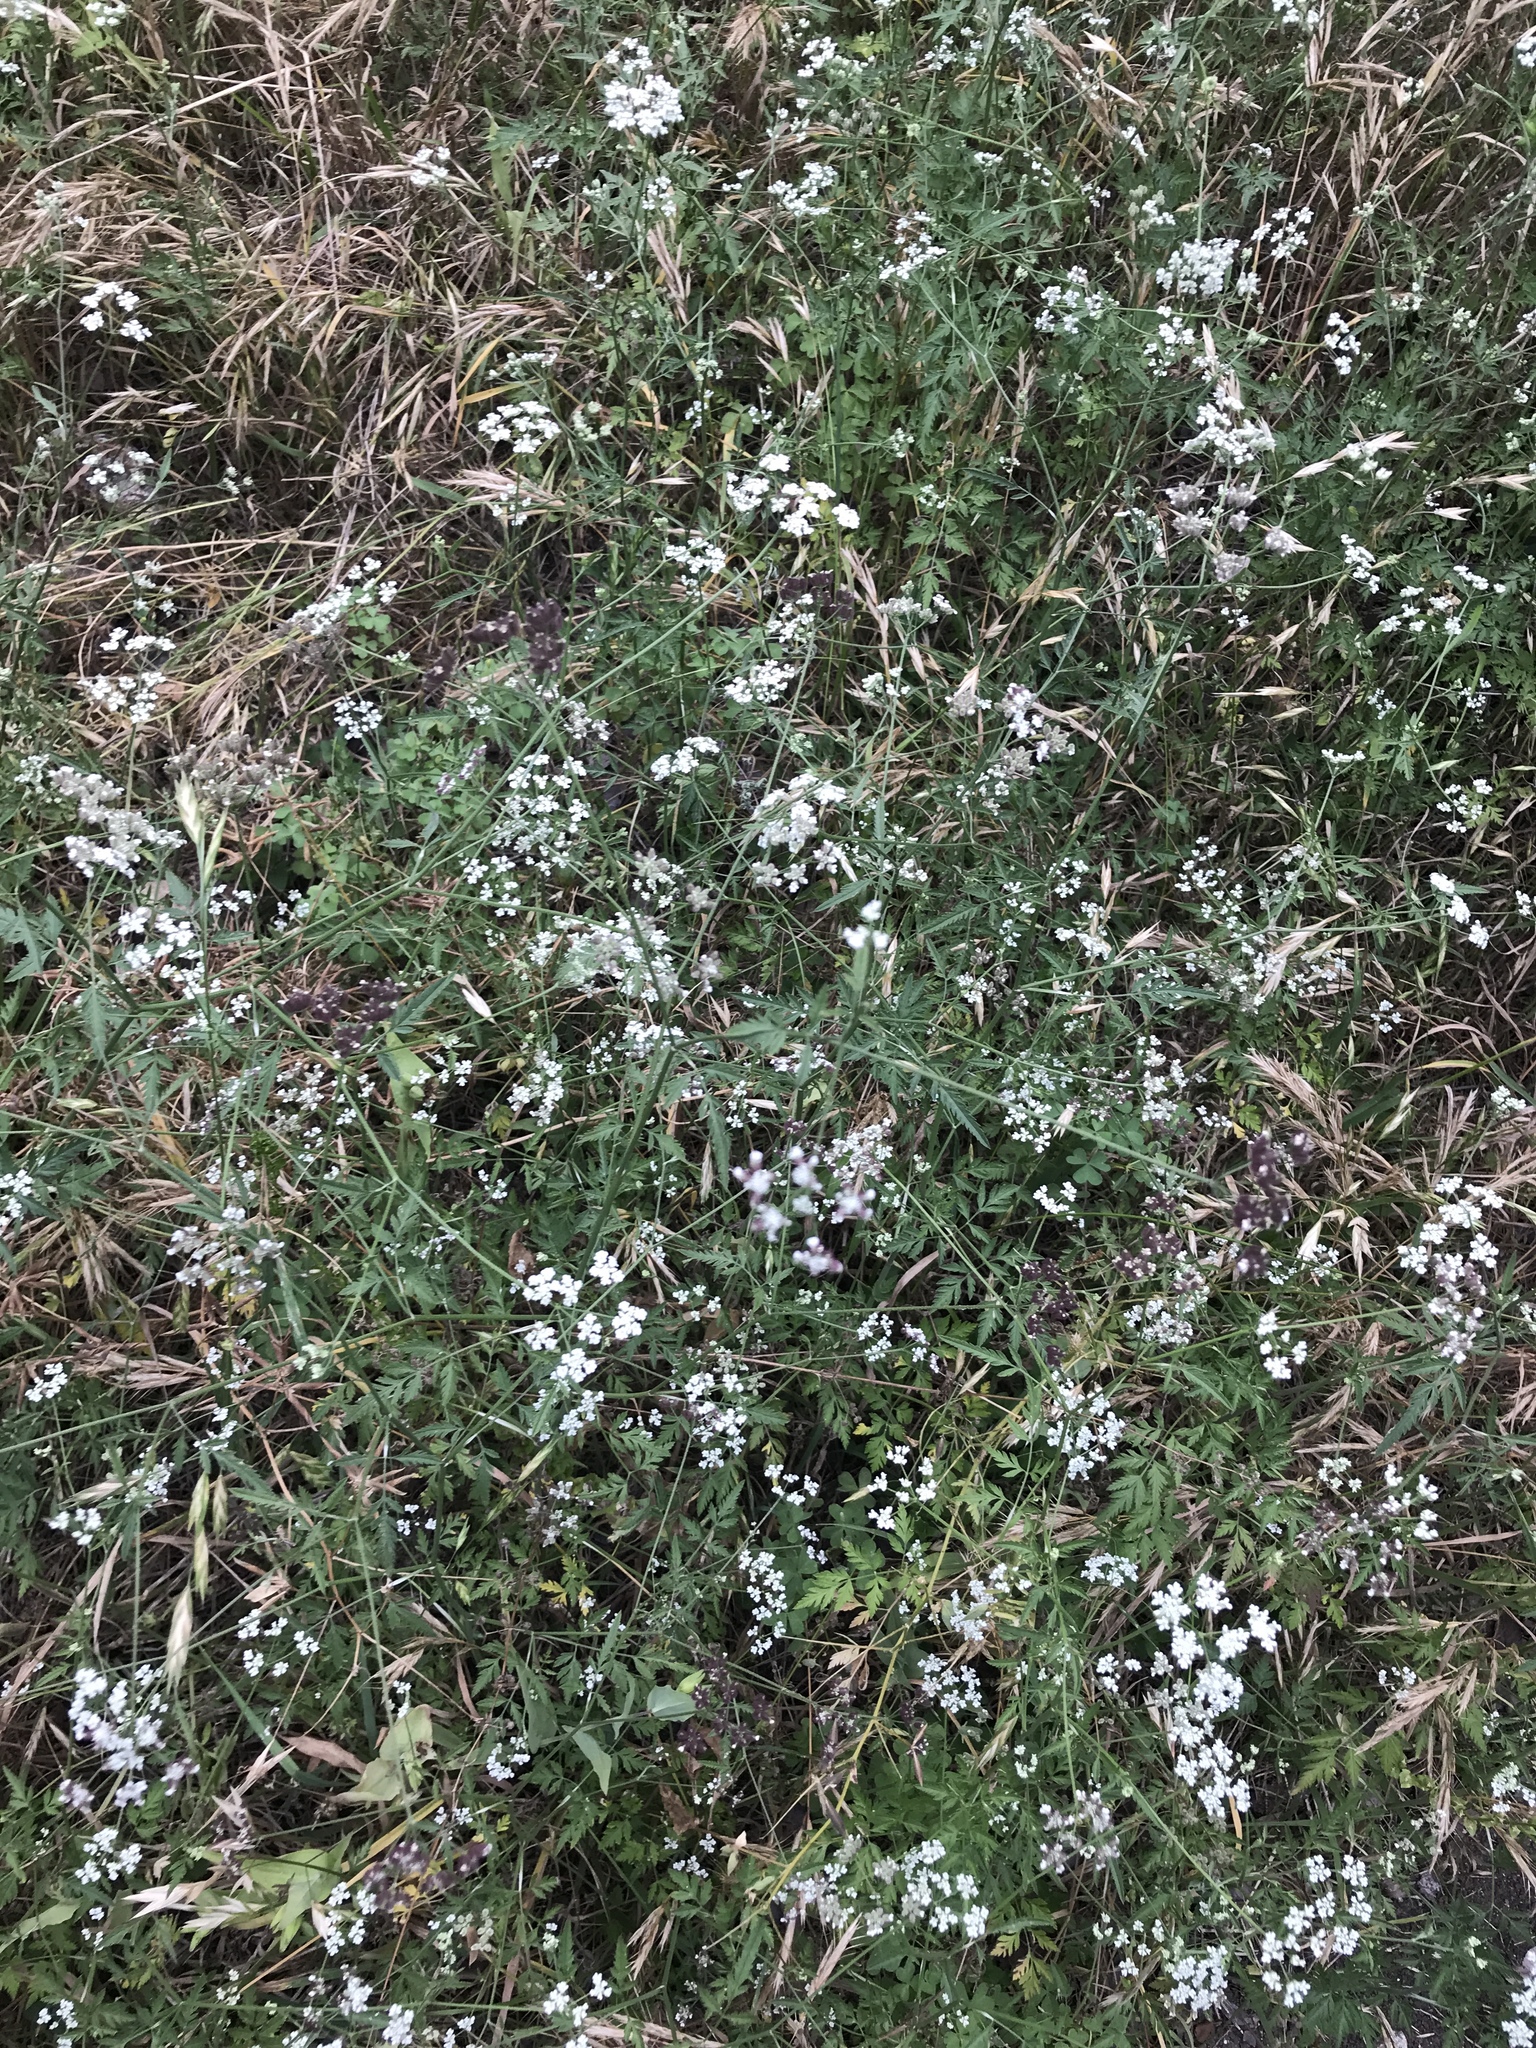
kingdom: Plantae
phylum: Tracheophyta
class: Magnoliopsida
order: Apiales
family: Apiaceae
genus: Torilis
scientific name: Torilis arvensis
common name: Spreading hedge-parsley
